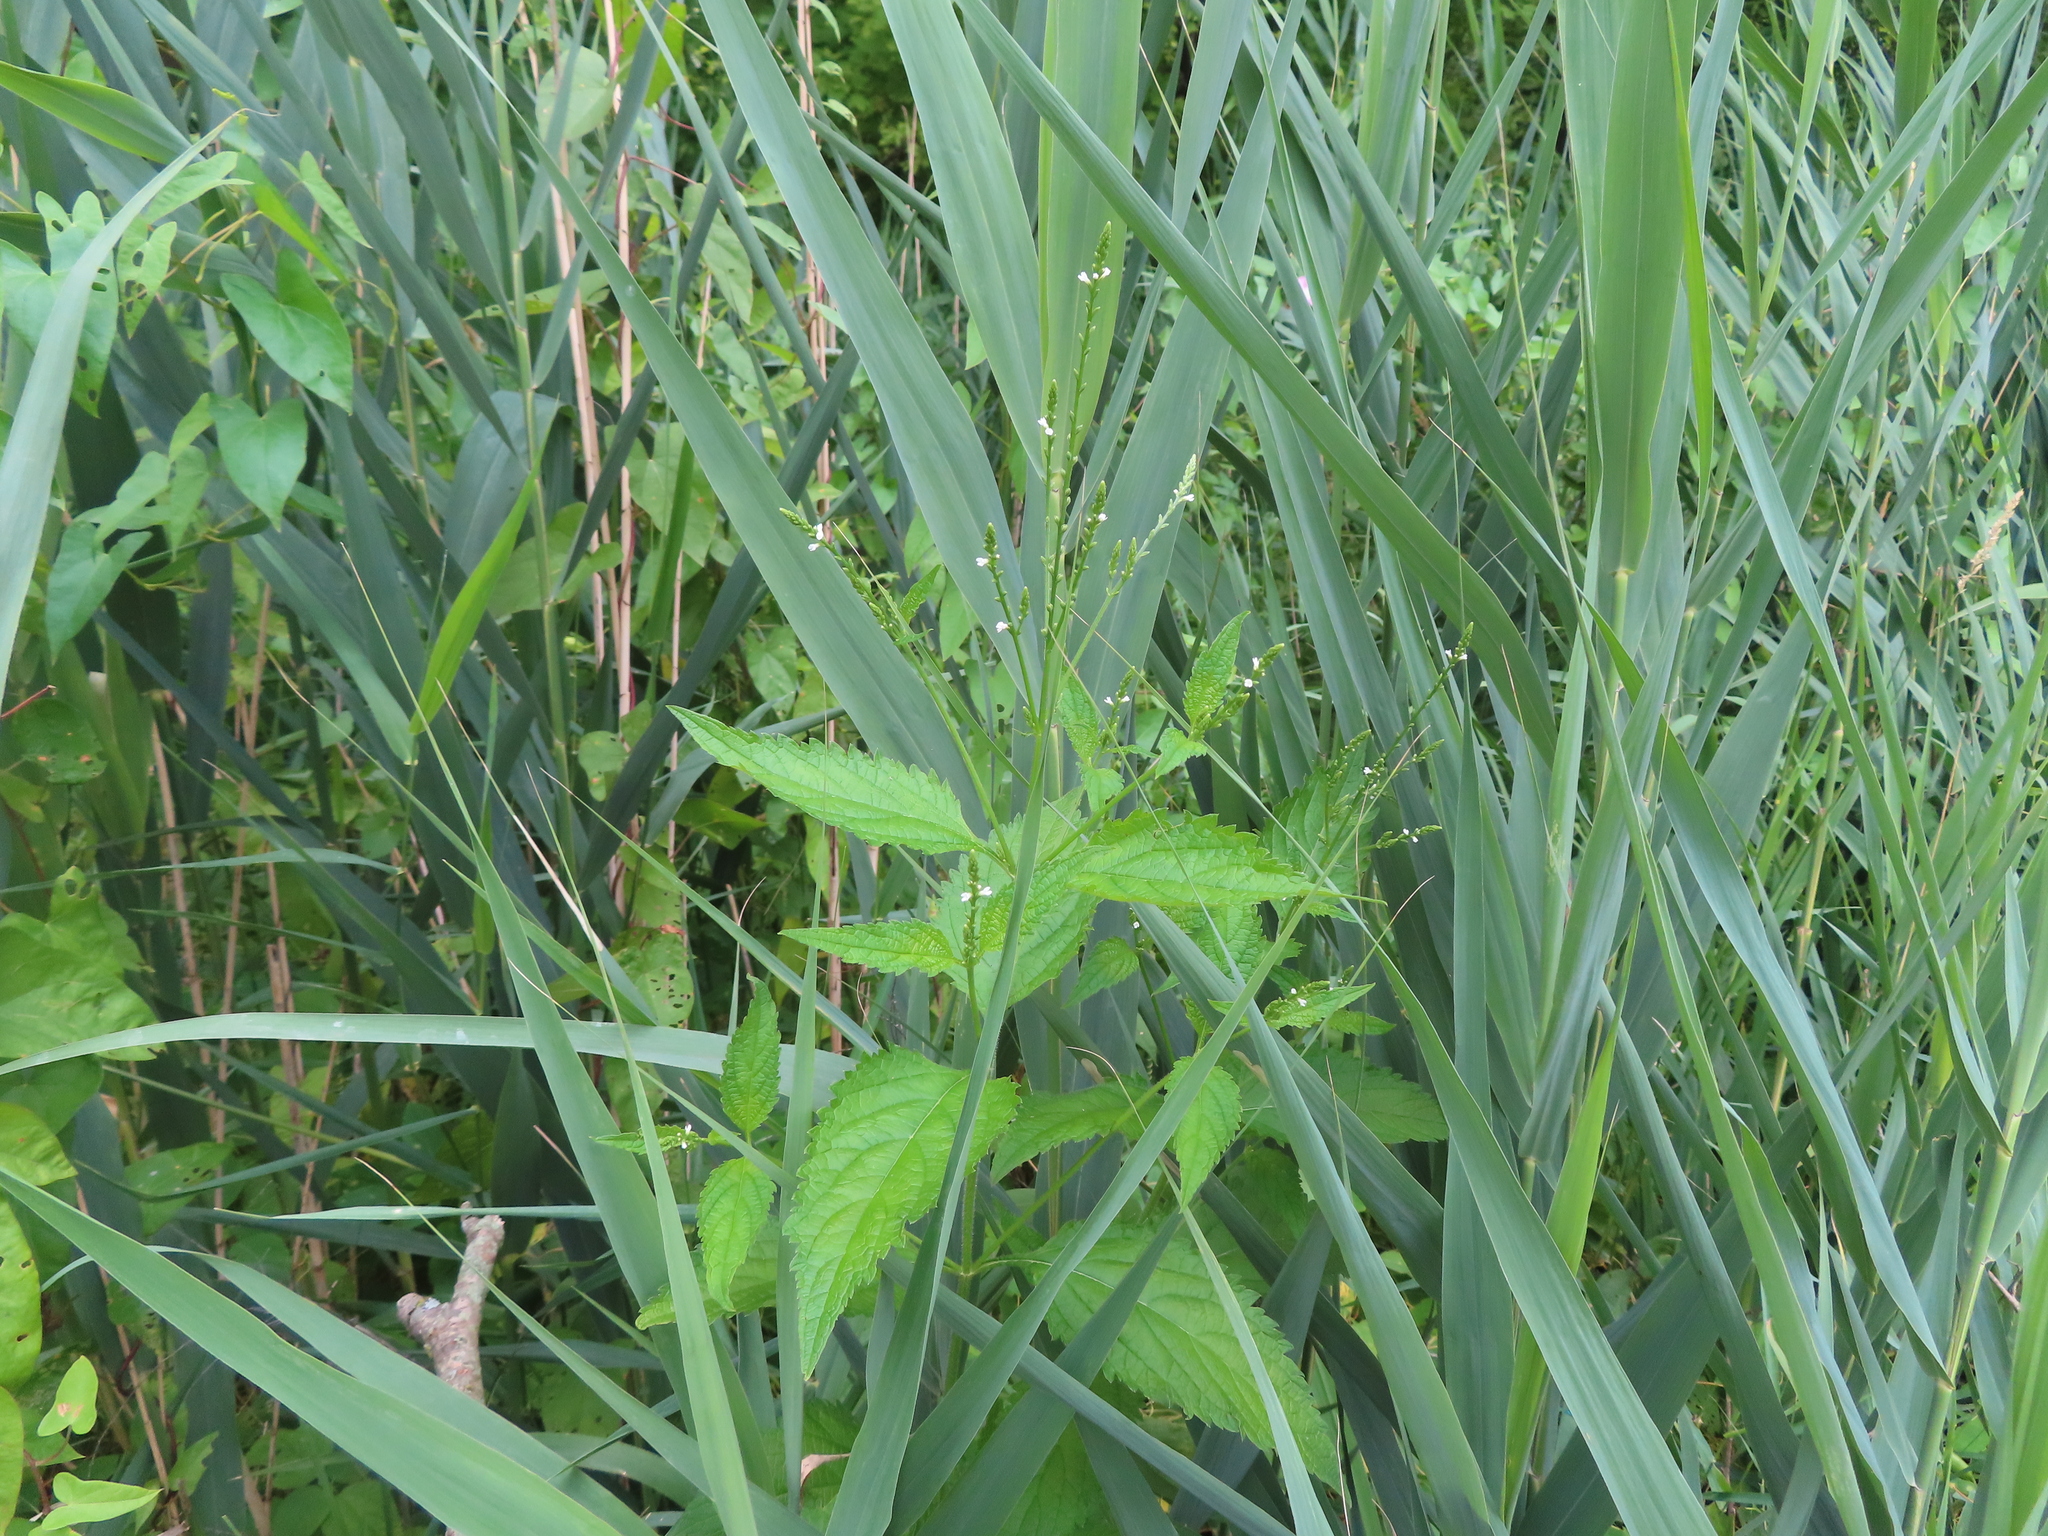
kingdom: Plantae
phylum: Tracheophyta
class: Magnoliopsida
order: Lamiales
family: Verbenaceae
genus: Verbena
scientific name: Verbena urticifolia
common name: Nettle-leaved vervain
